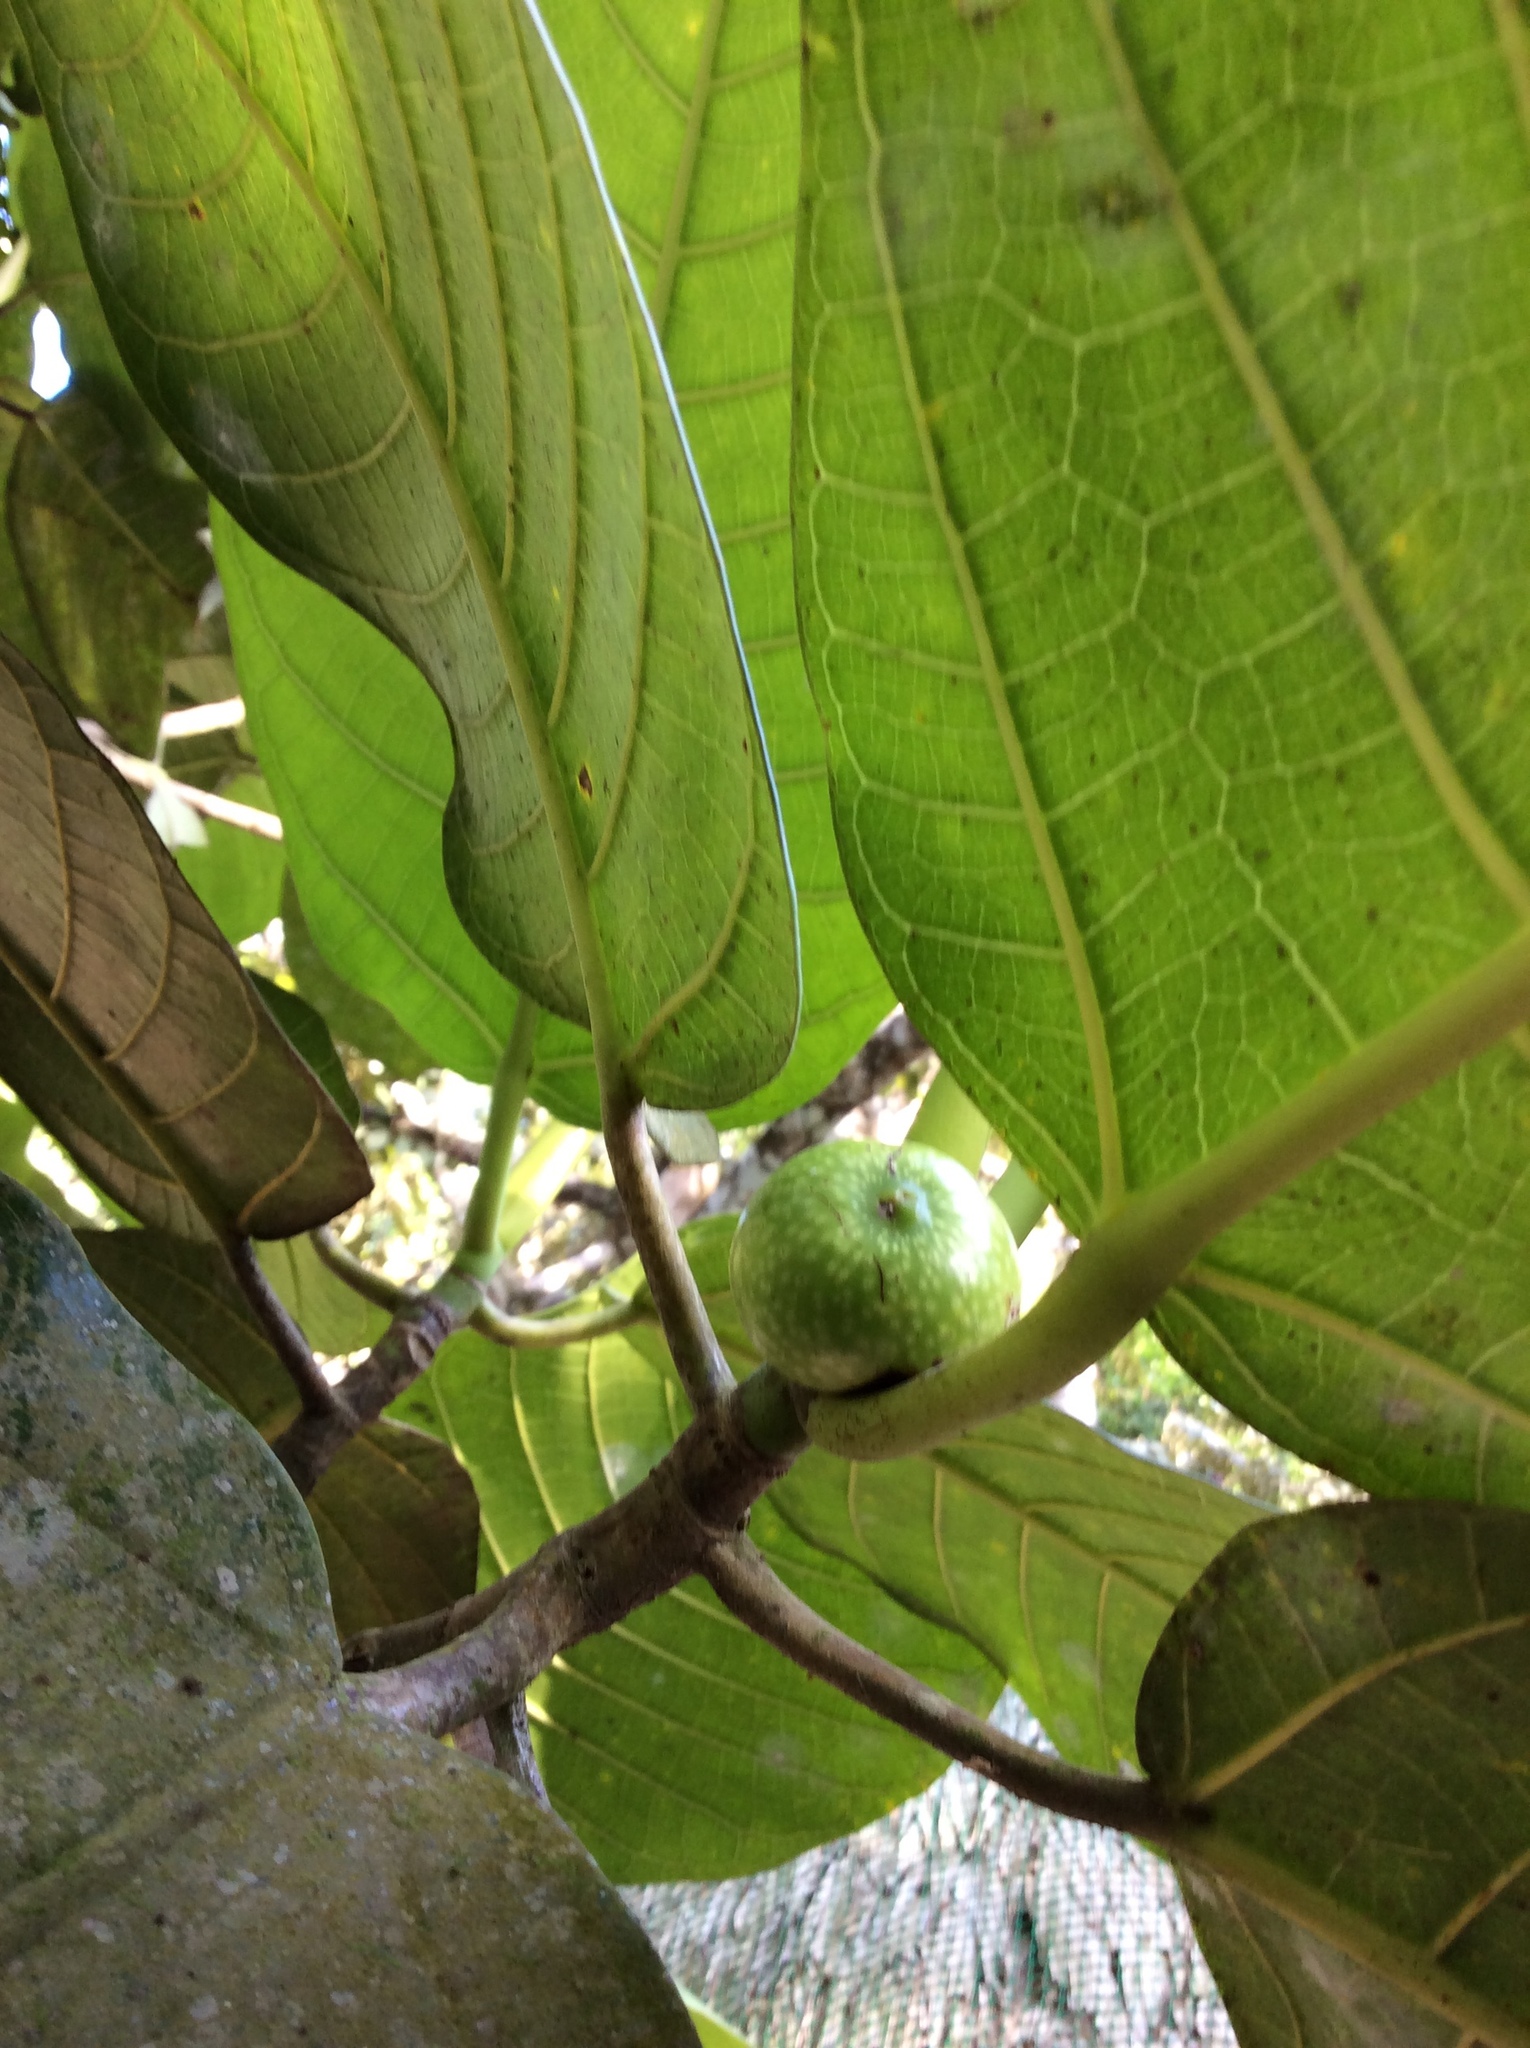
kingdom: Plantae
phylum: Tracheophyta
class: Magnoliopsida
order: Rosales
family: Moraceae
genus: Ficus
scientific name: Ficus benghalensis
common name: Indian banyan
